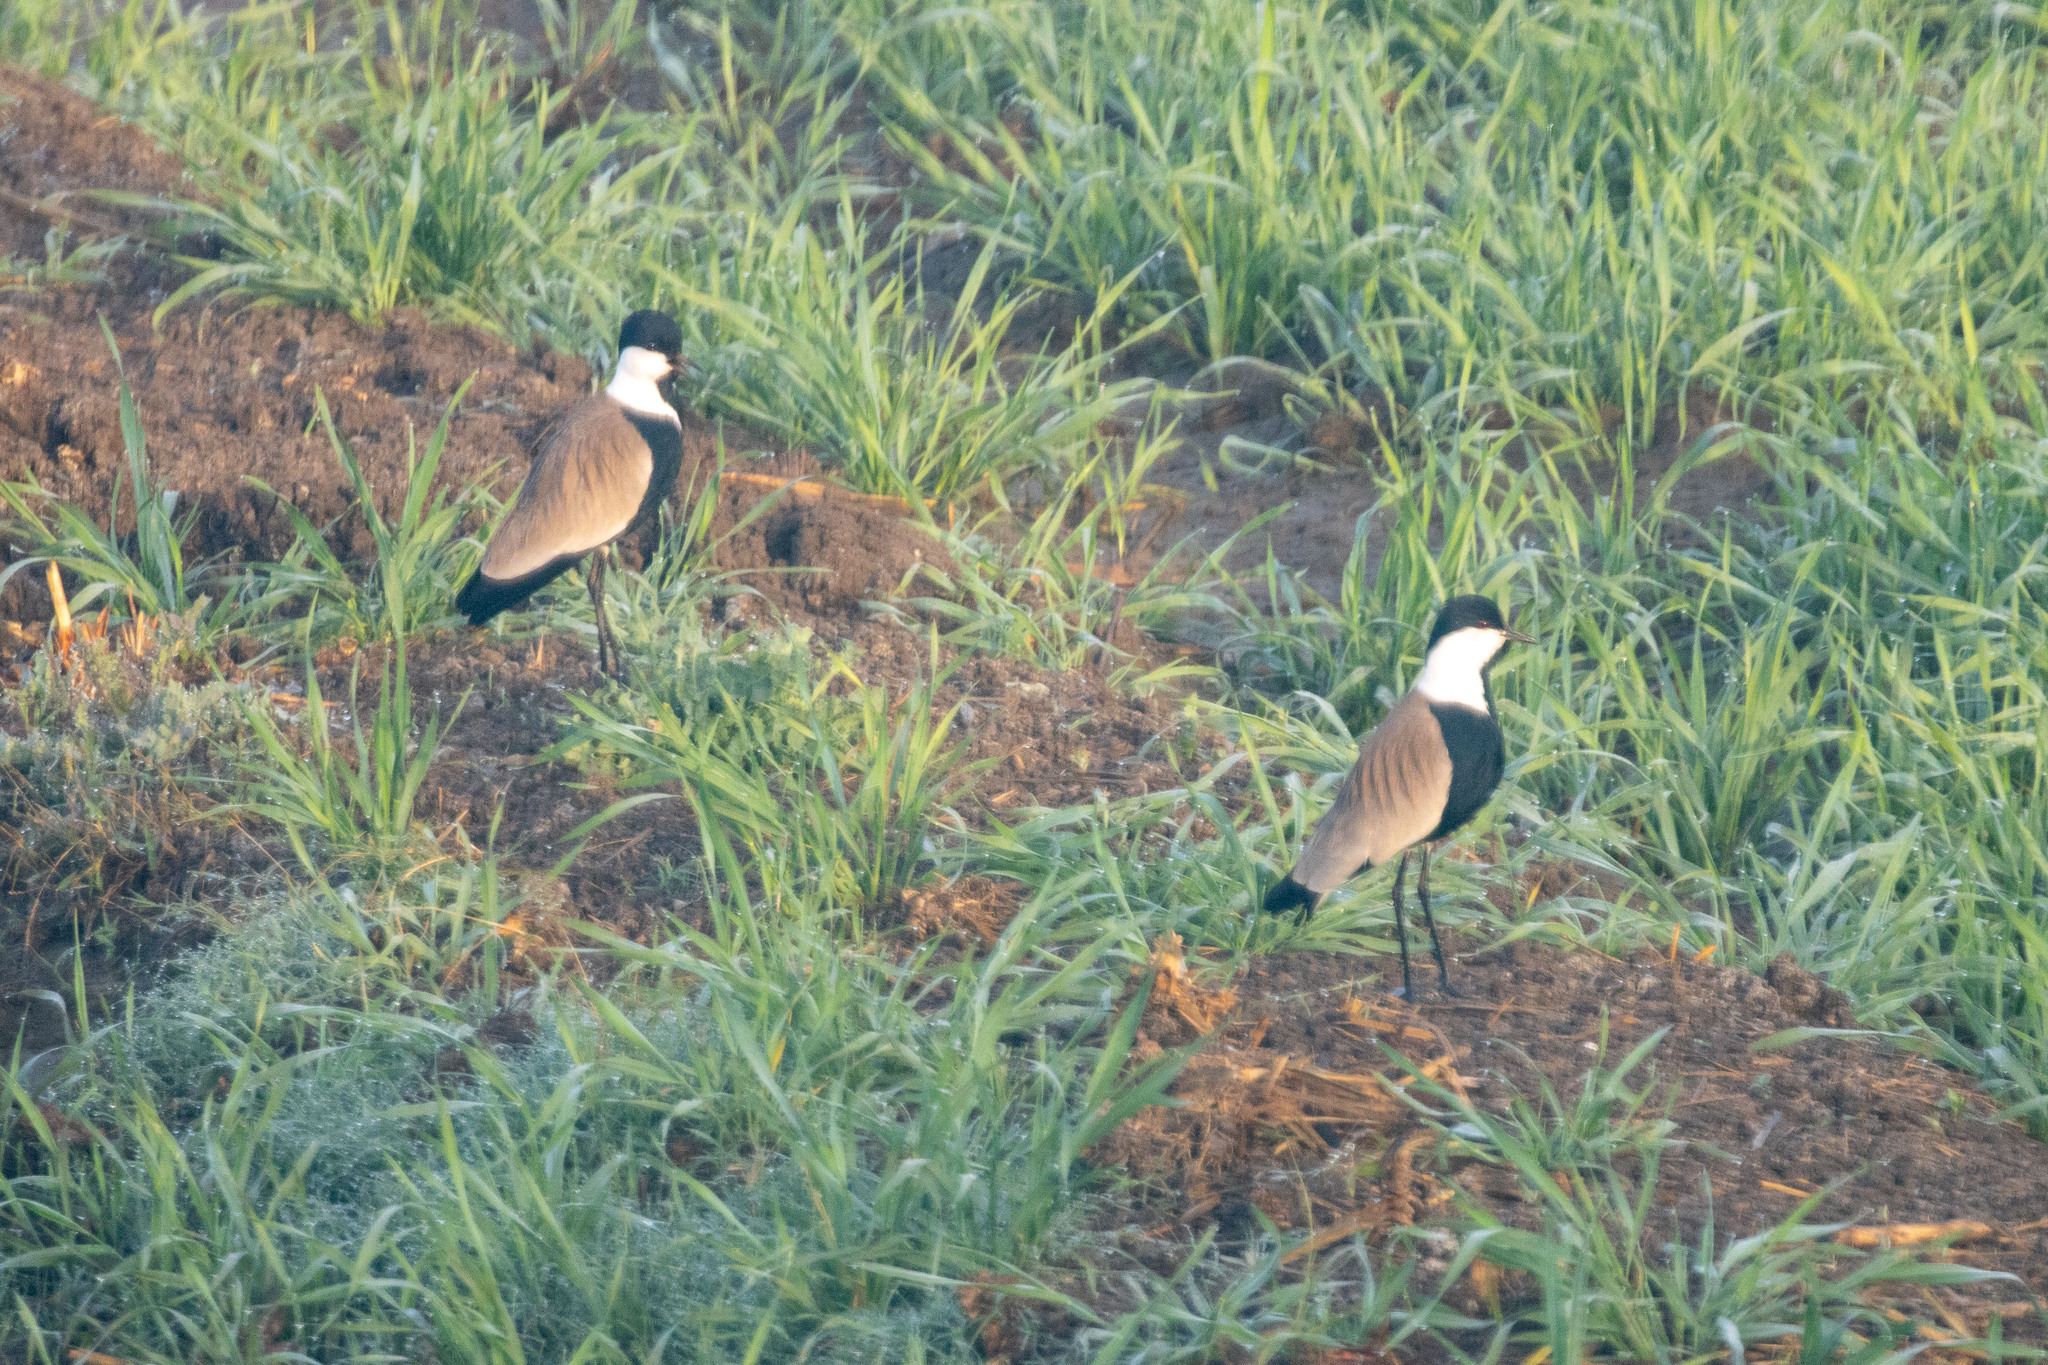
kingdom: Animalia
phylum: Chordata
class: Aves
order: Charadriiformes
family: Charadriidae
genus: Vanellus
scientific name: Vanellus spinosus
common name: Spur-winged lapwing
